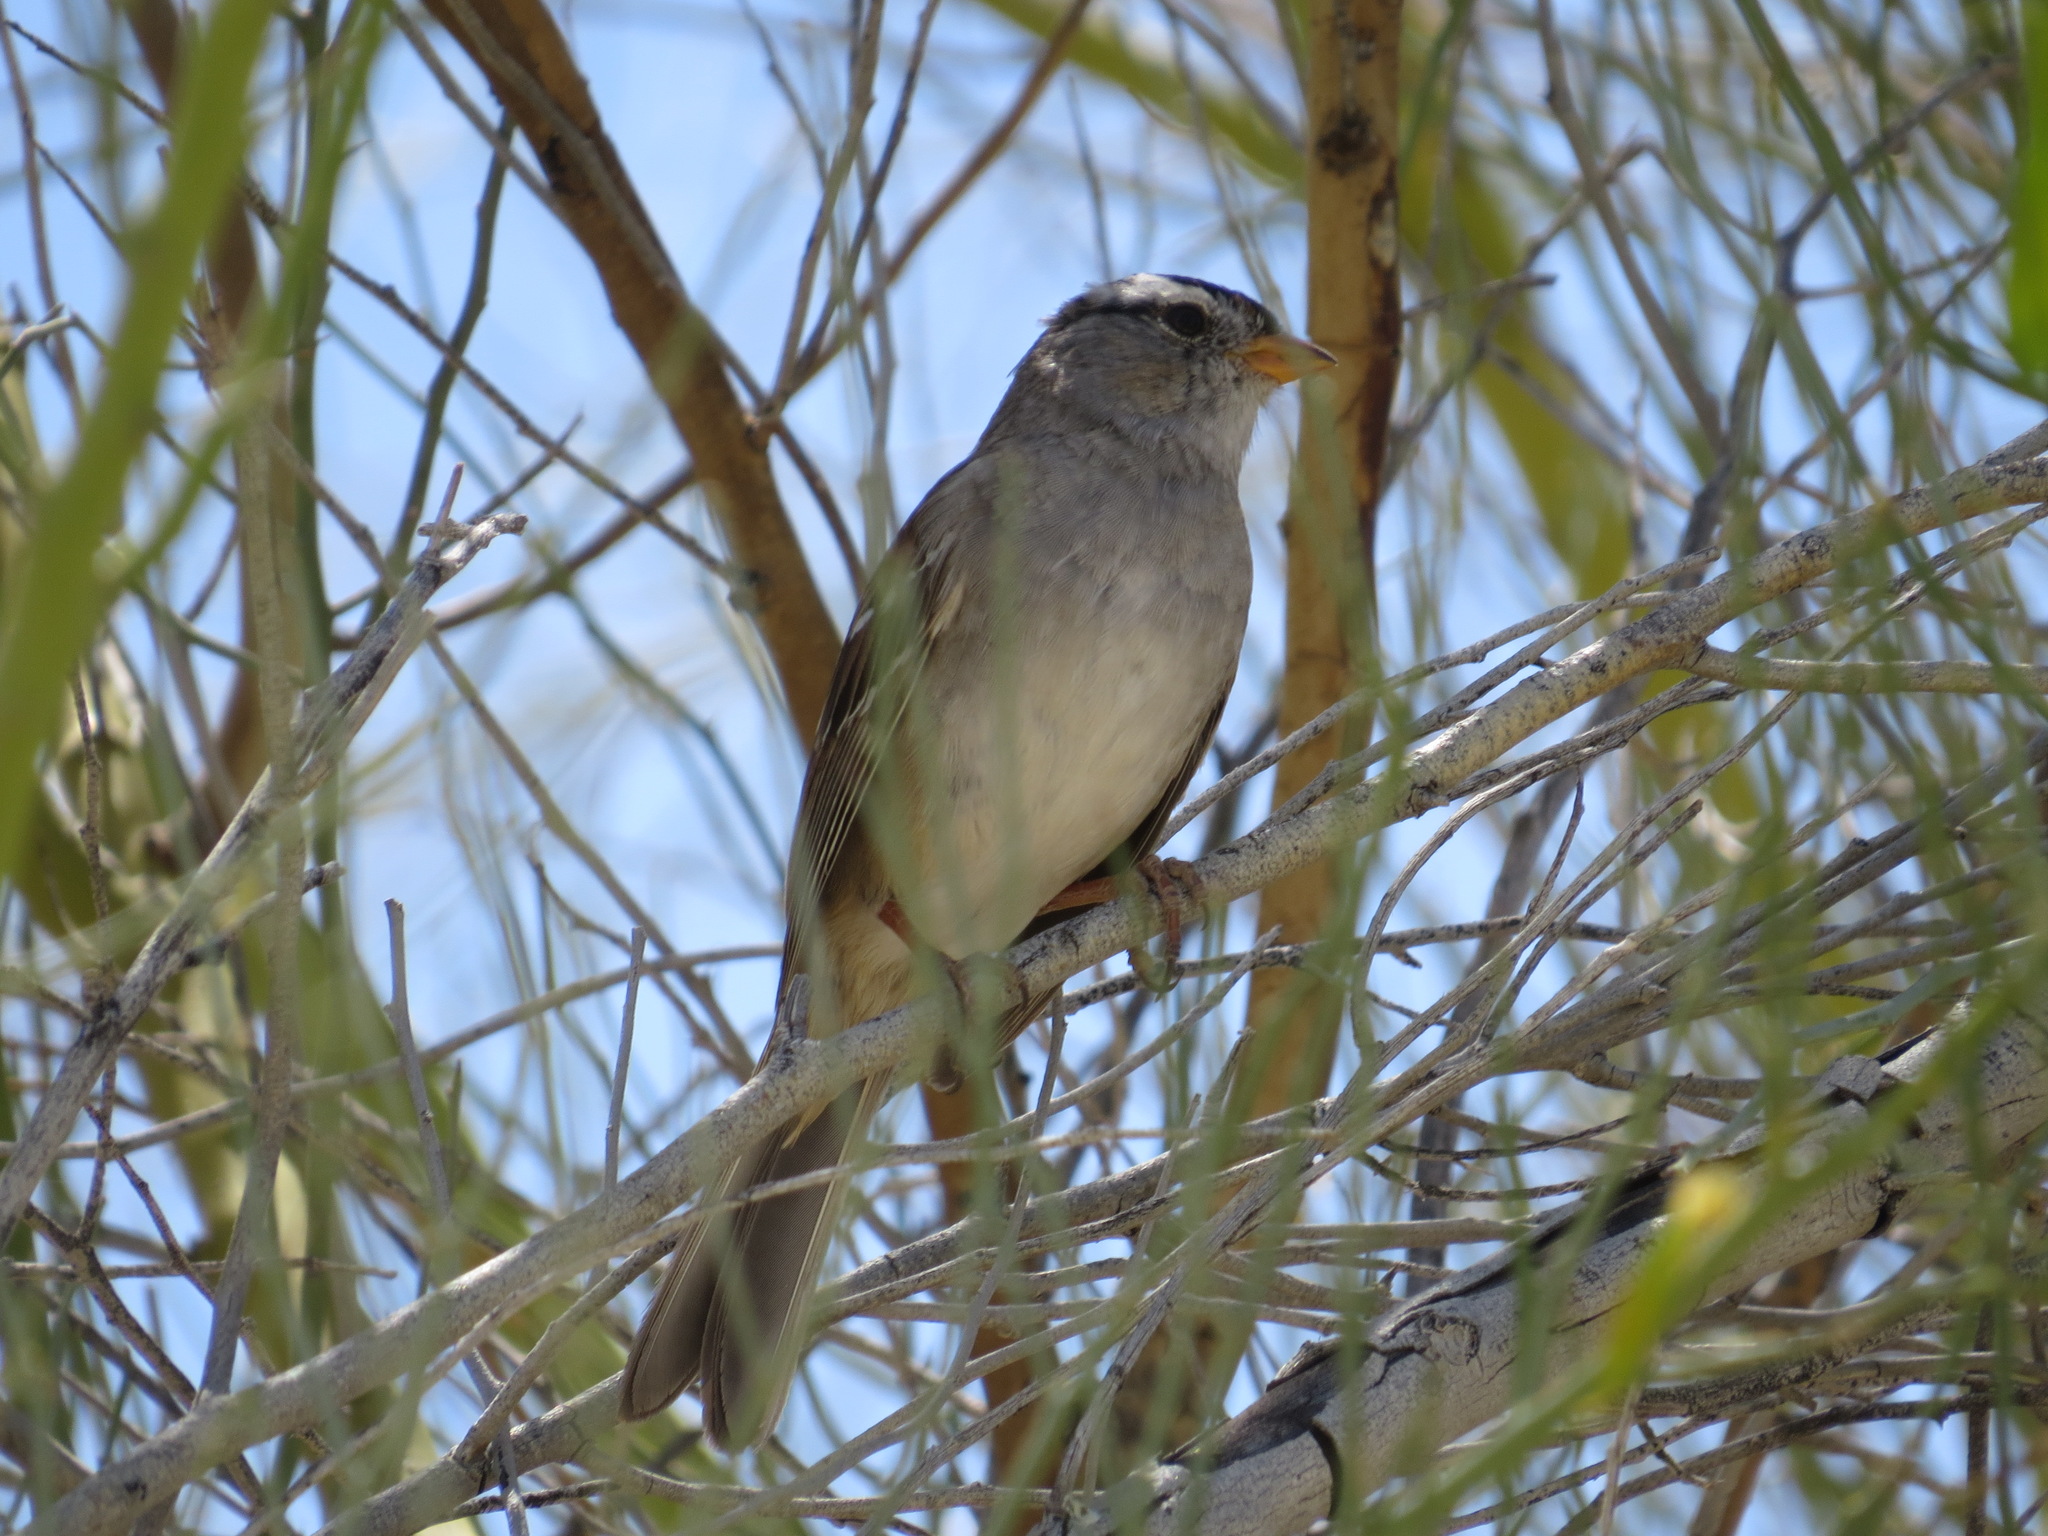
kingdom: Animalia
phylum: Chordata
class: Aves
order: Passeriformes
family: Passerellidae
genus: Zonotrichia
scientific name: Zonotrichia leucophrys
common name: White-crowned sparrow
